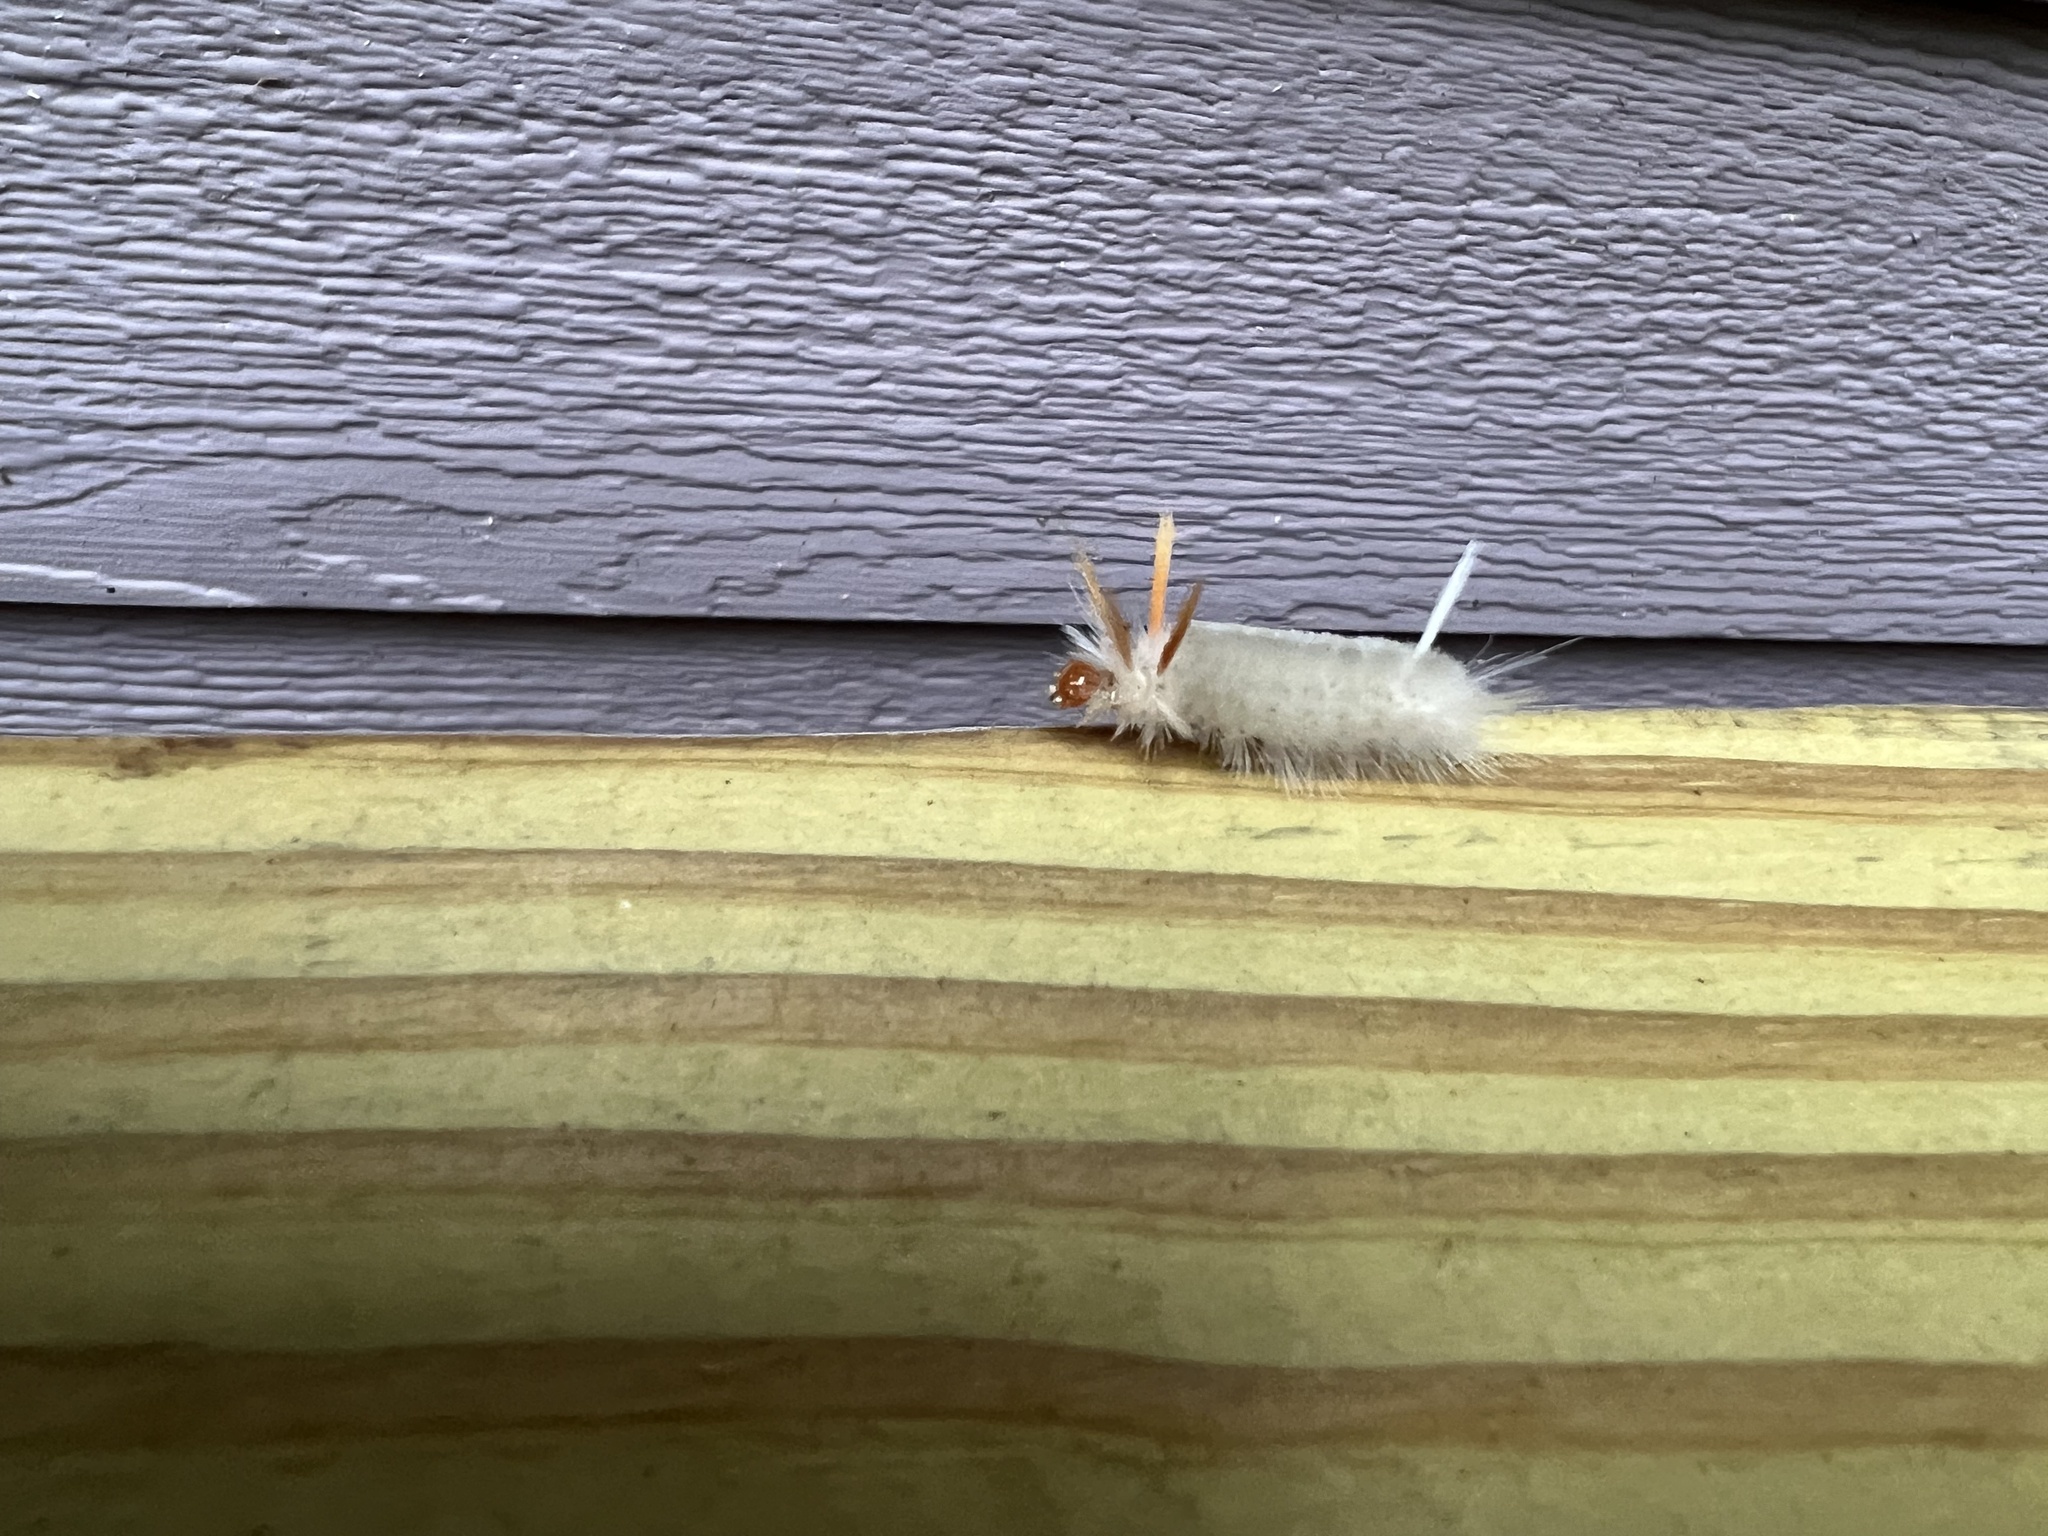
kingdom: Animalia
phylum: Arthropoda
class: Insecta
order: Lepidoptera
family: Erebidae
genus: Halysidota
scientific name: Halysidota harrisii
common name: Sycamore tussock moth
